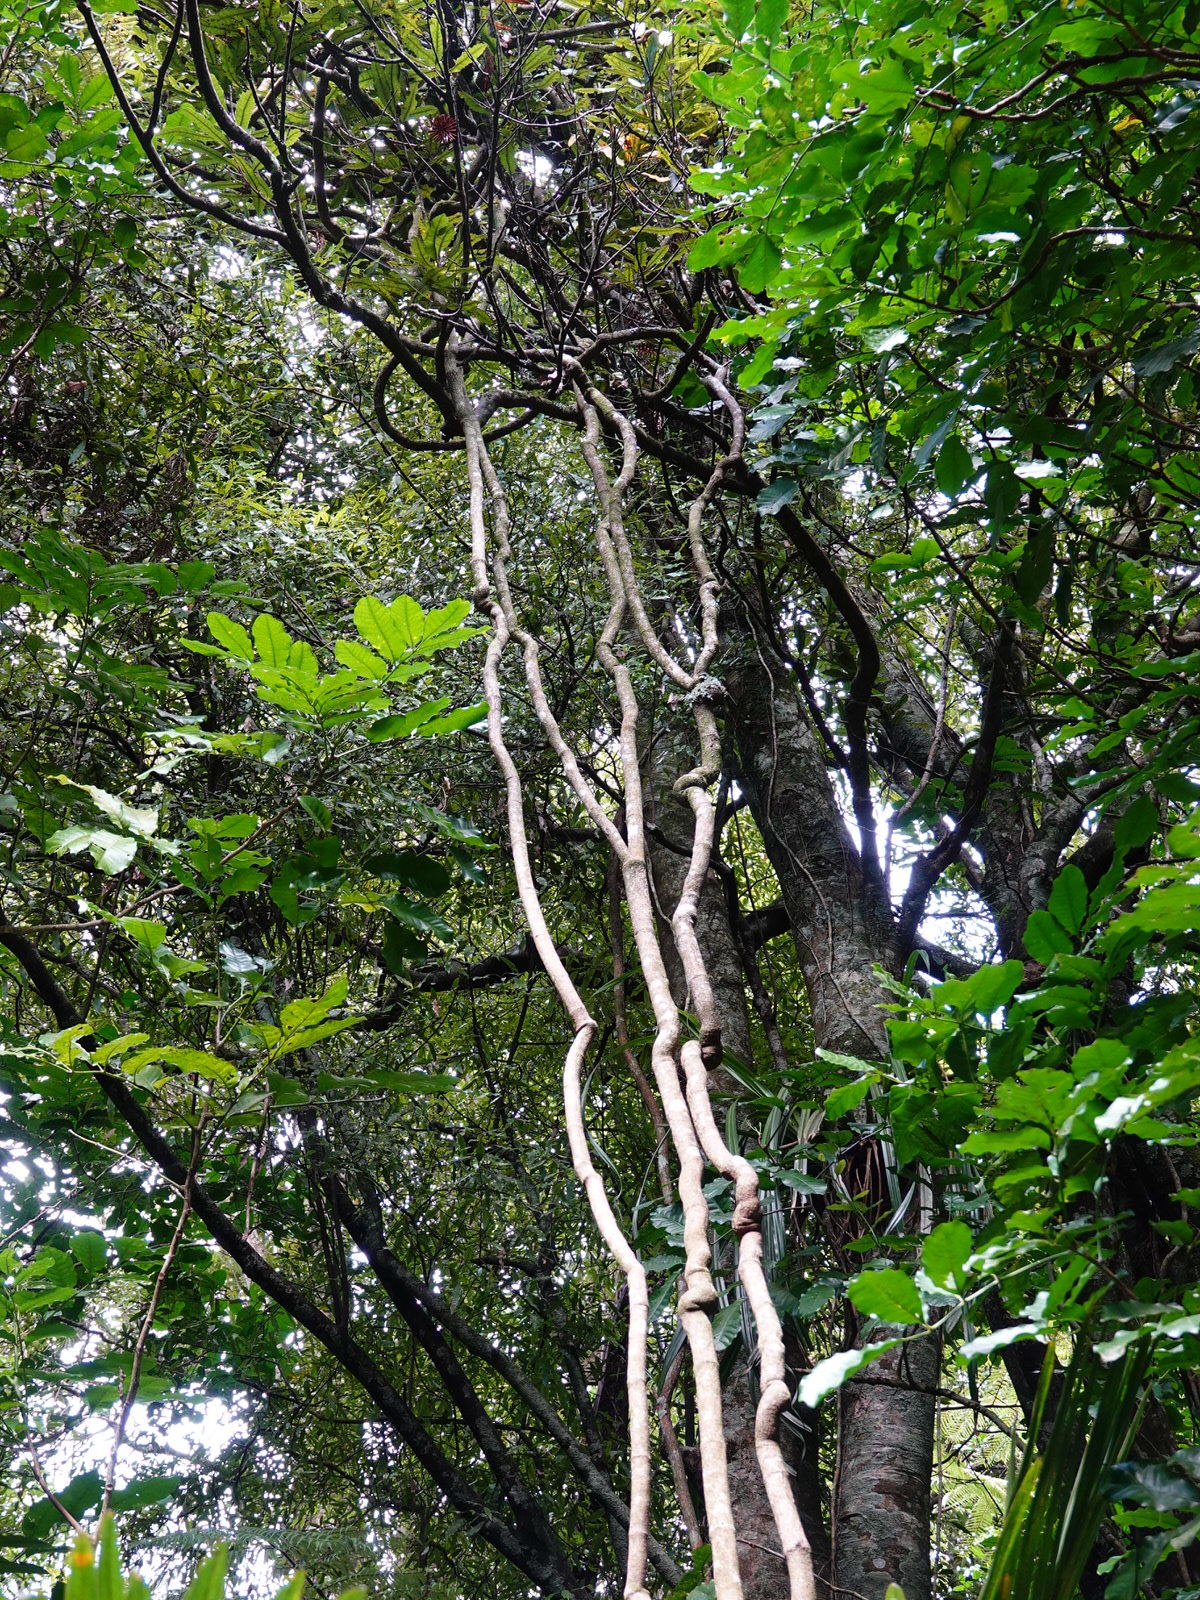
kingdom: Plantae
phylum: Tracheophyta
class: Magnoliopsida
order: Gentianales
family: Apocynaceae
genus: Parsonsia
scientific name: Parsonsia heterophylla
